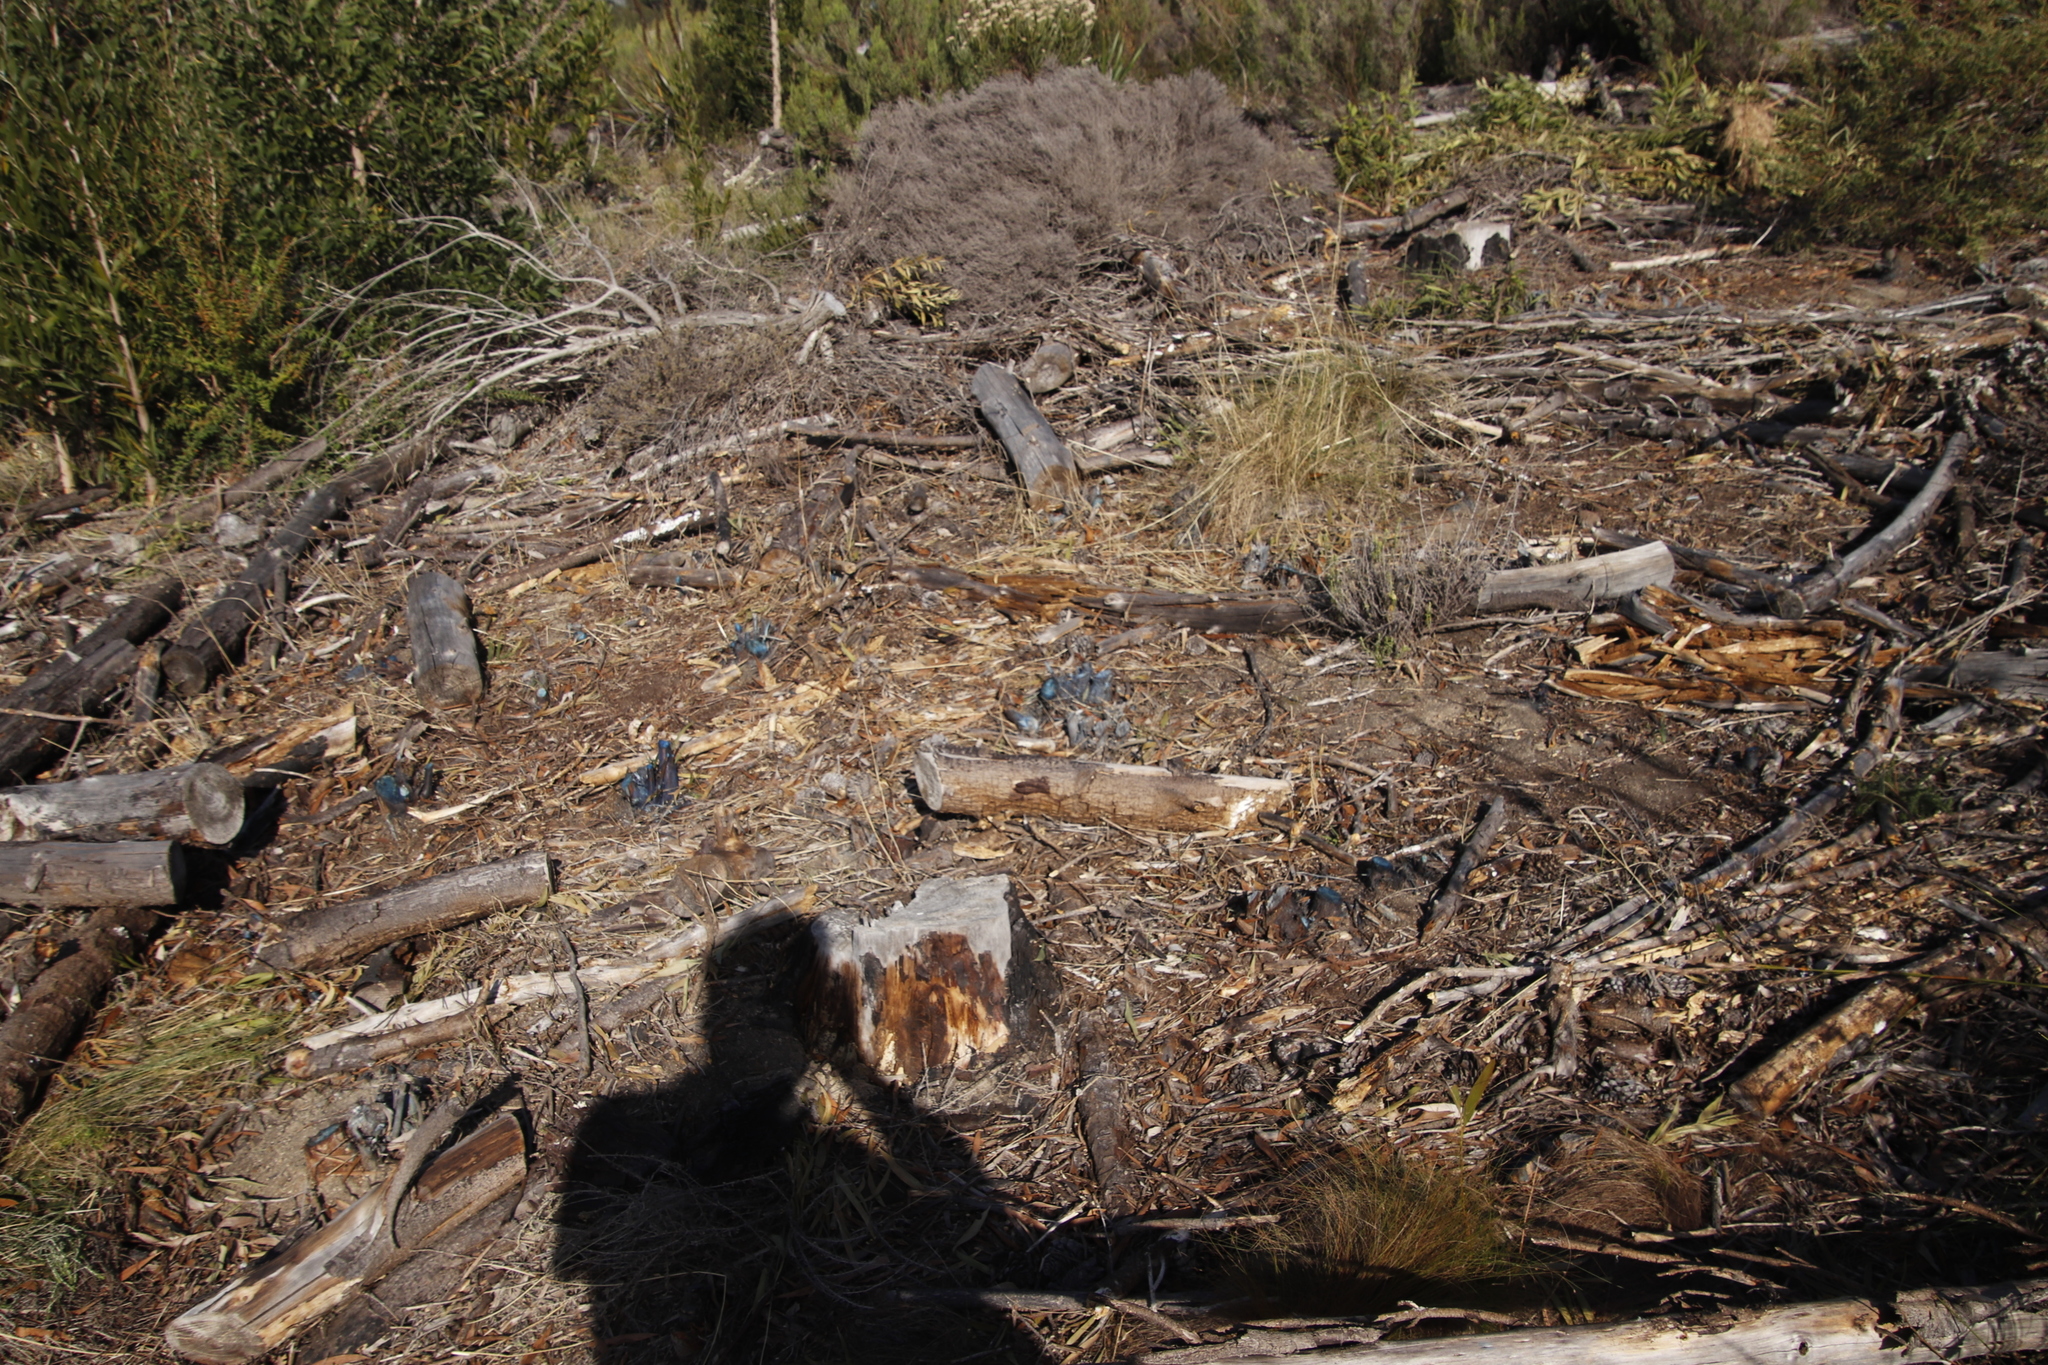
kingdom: Plantae
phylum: Tracheophyta
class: Magnoliopsida
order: Fabales
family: Fabaceae
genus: Acacia
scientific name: Acacia melanoxylon
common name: Blackwood
